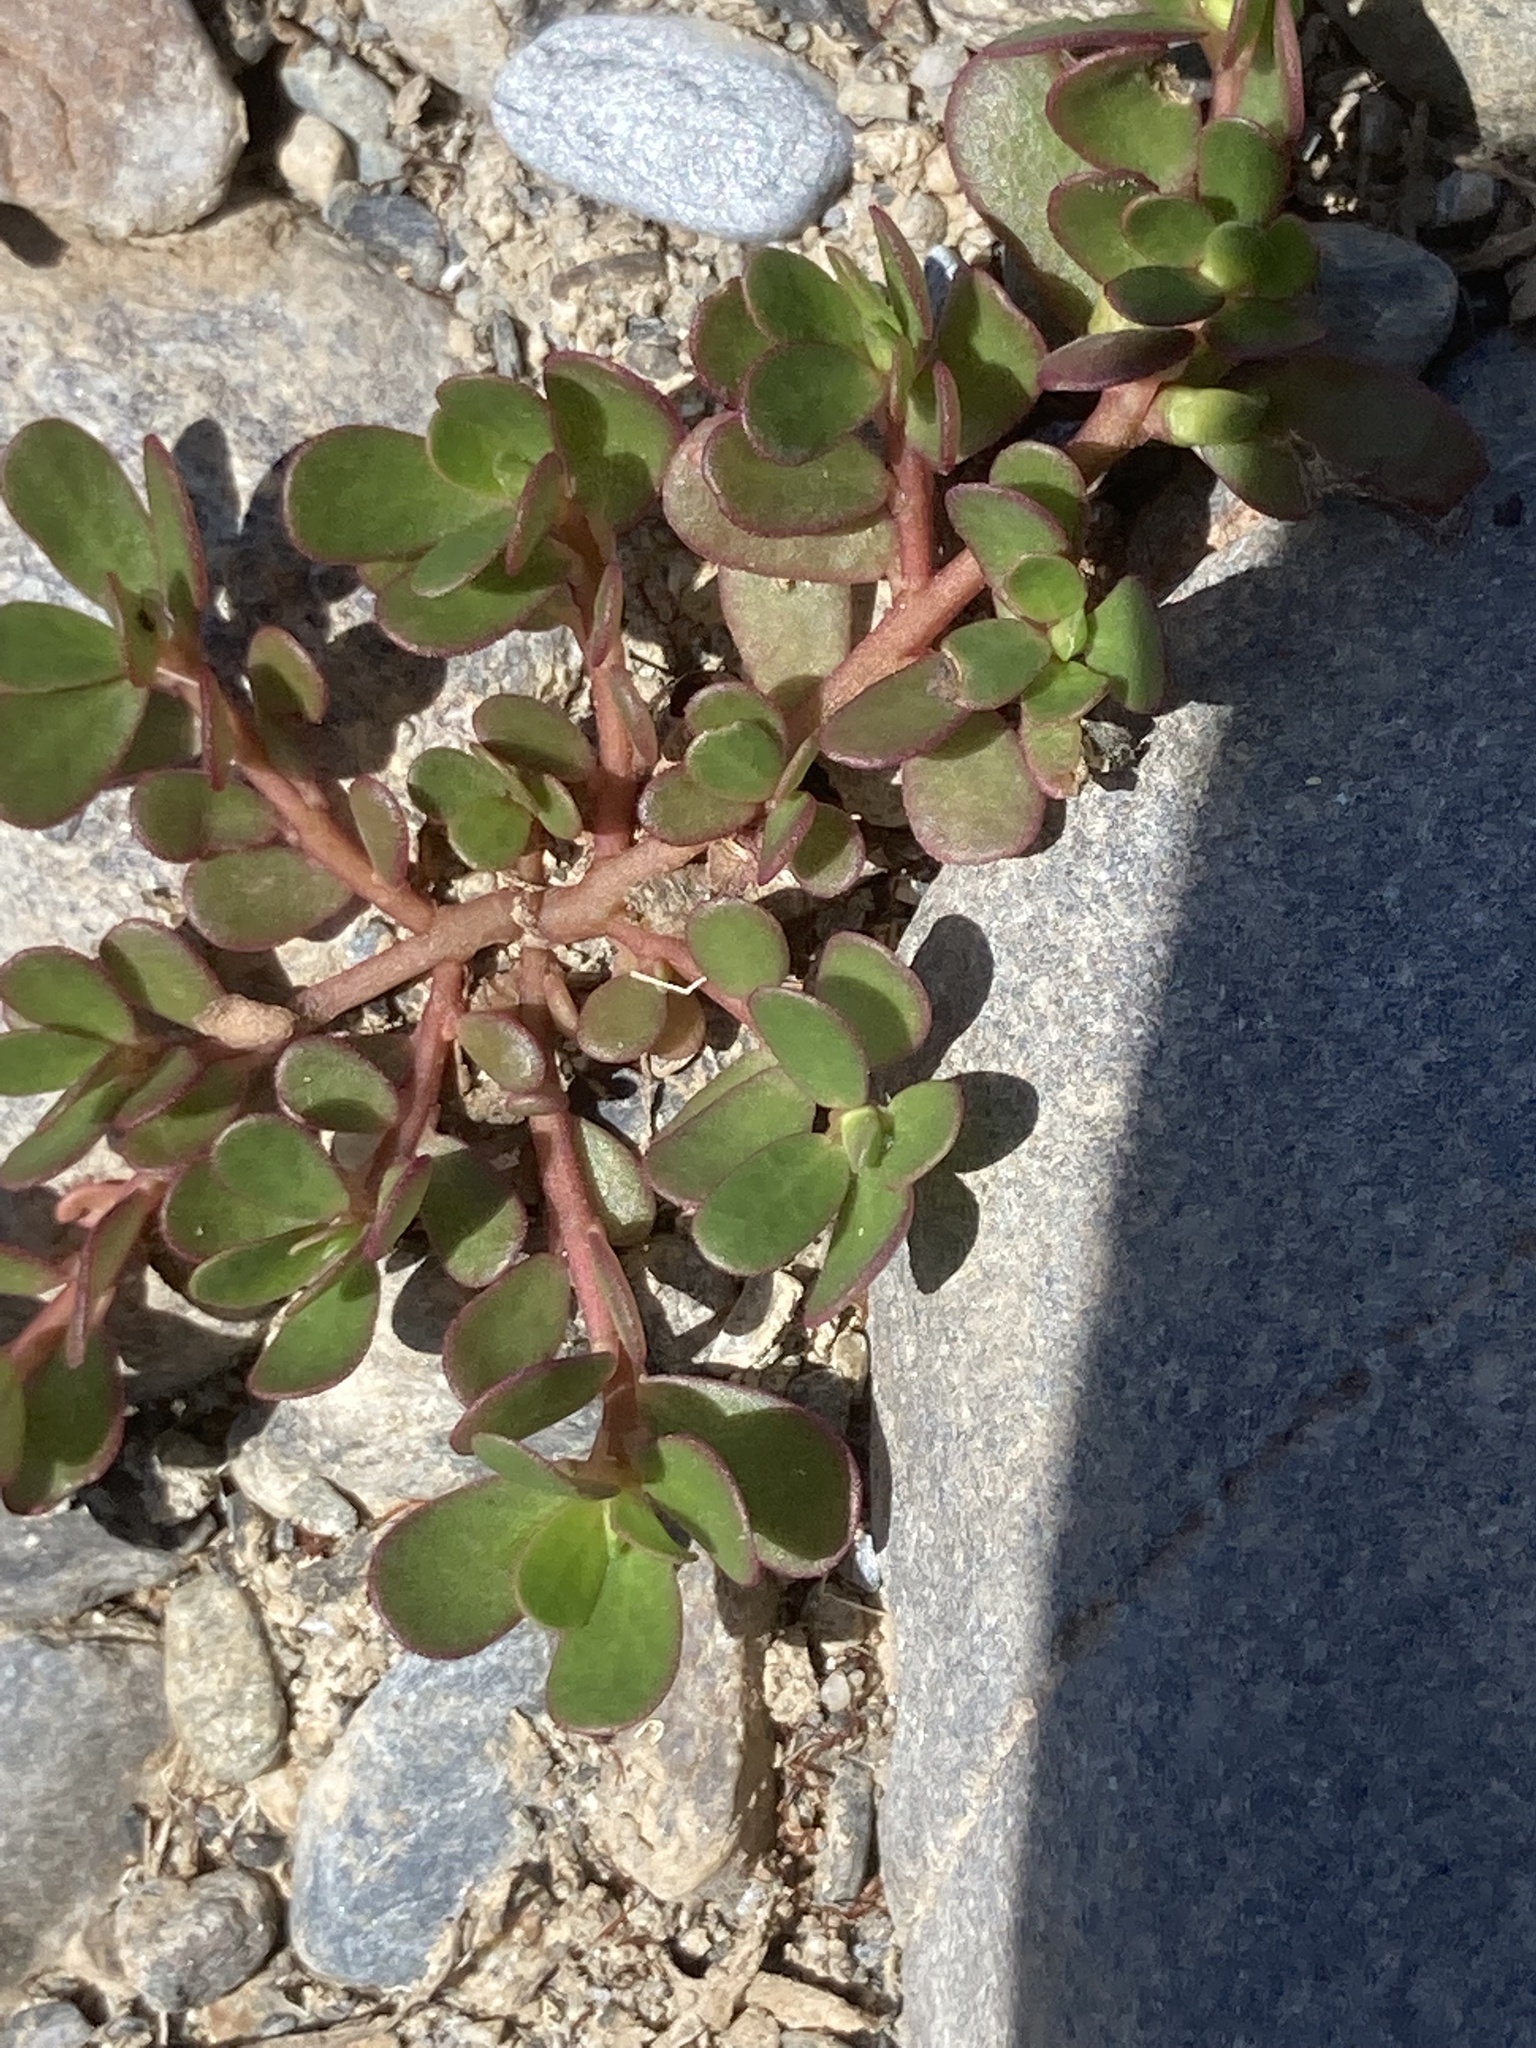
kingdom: Plantae
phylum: Tracheophyta
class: Magnoliopsida
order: Caryophyllales
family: Portulacaceae
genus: Portulaca
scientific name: Portulaca oleracea
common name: Common purslane
